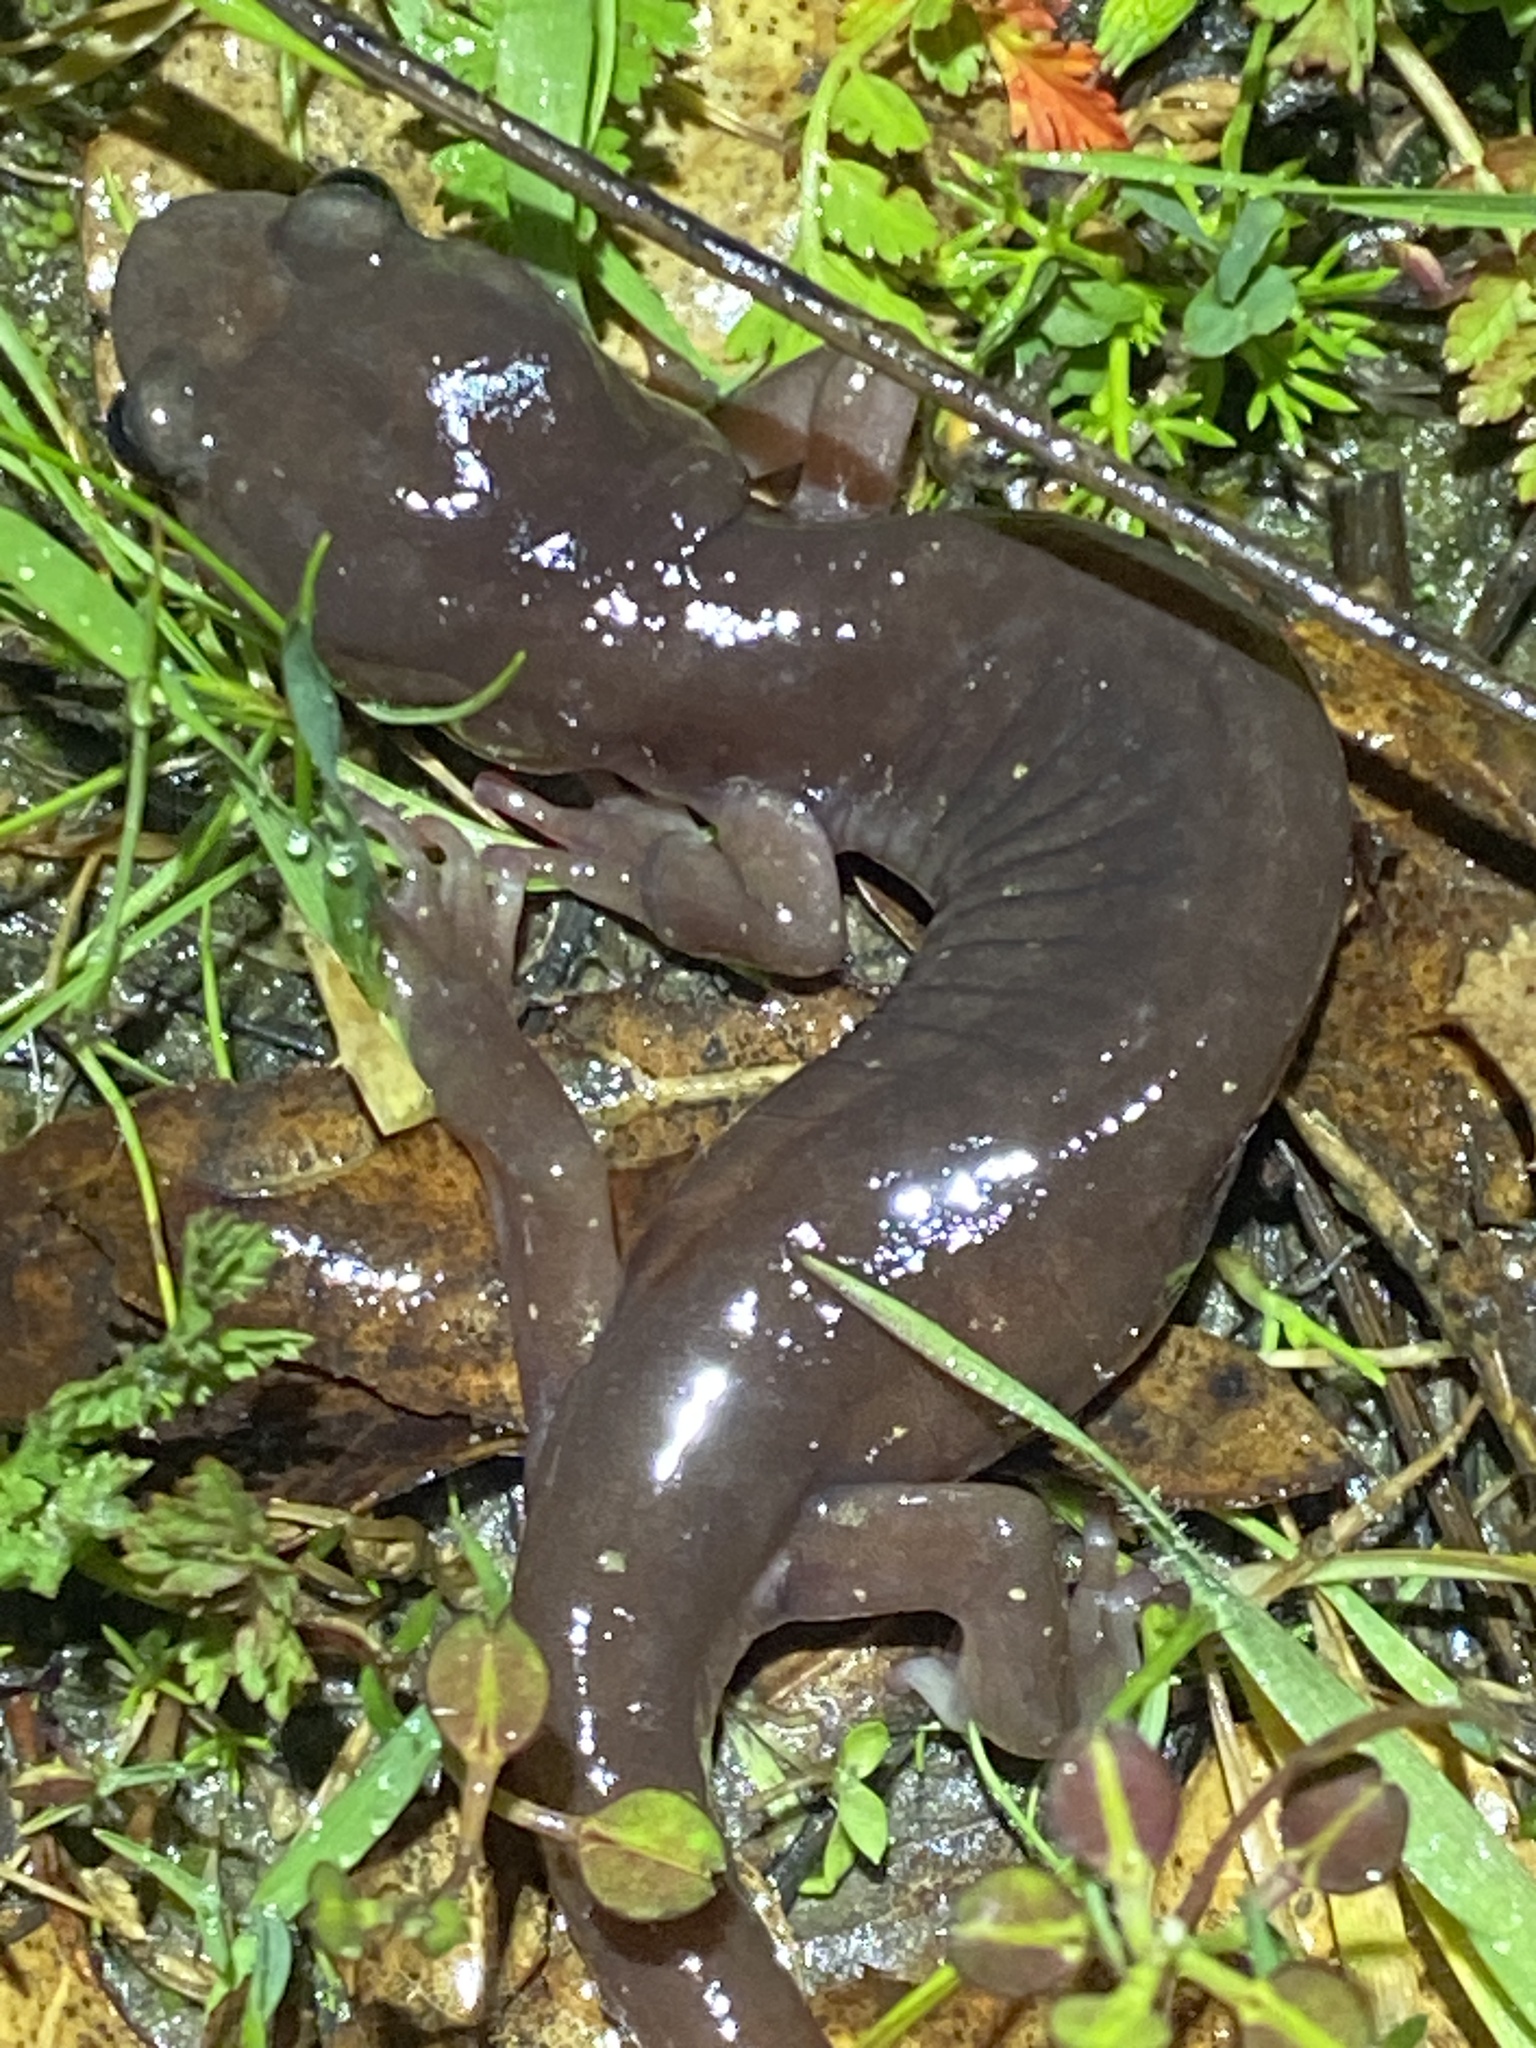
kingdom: Animalia
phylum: Chordata
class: Amphibia
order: Caudata
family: Plethodontidae
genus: Aneides
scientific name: Aneides lugubris
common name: Arboreal salamander
